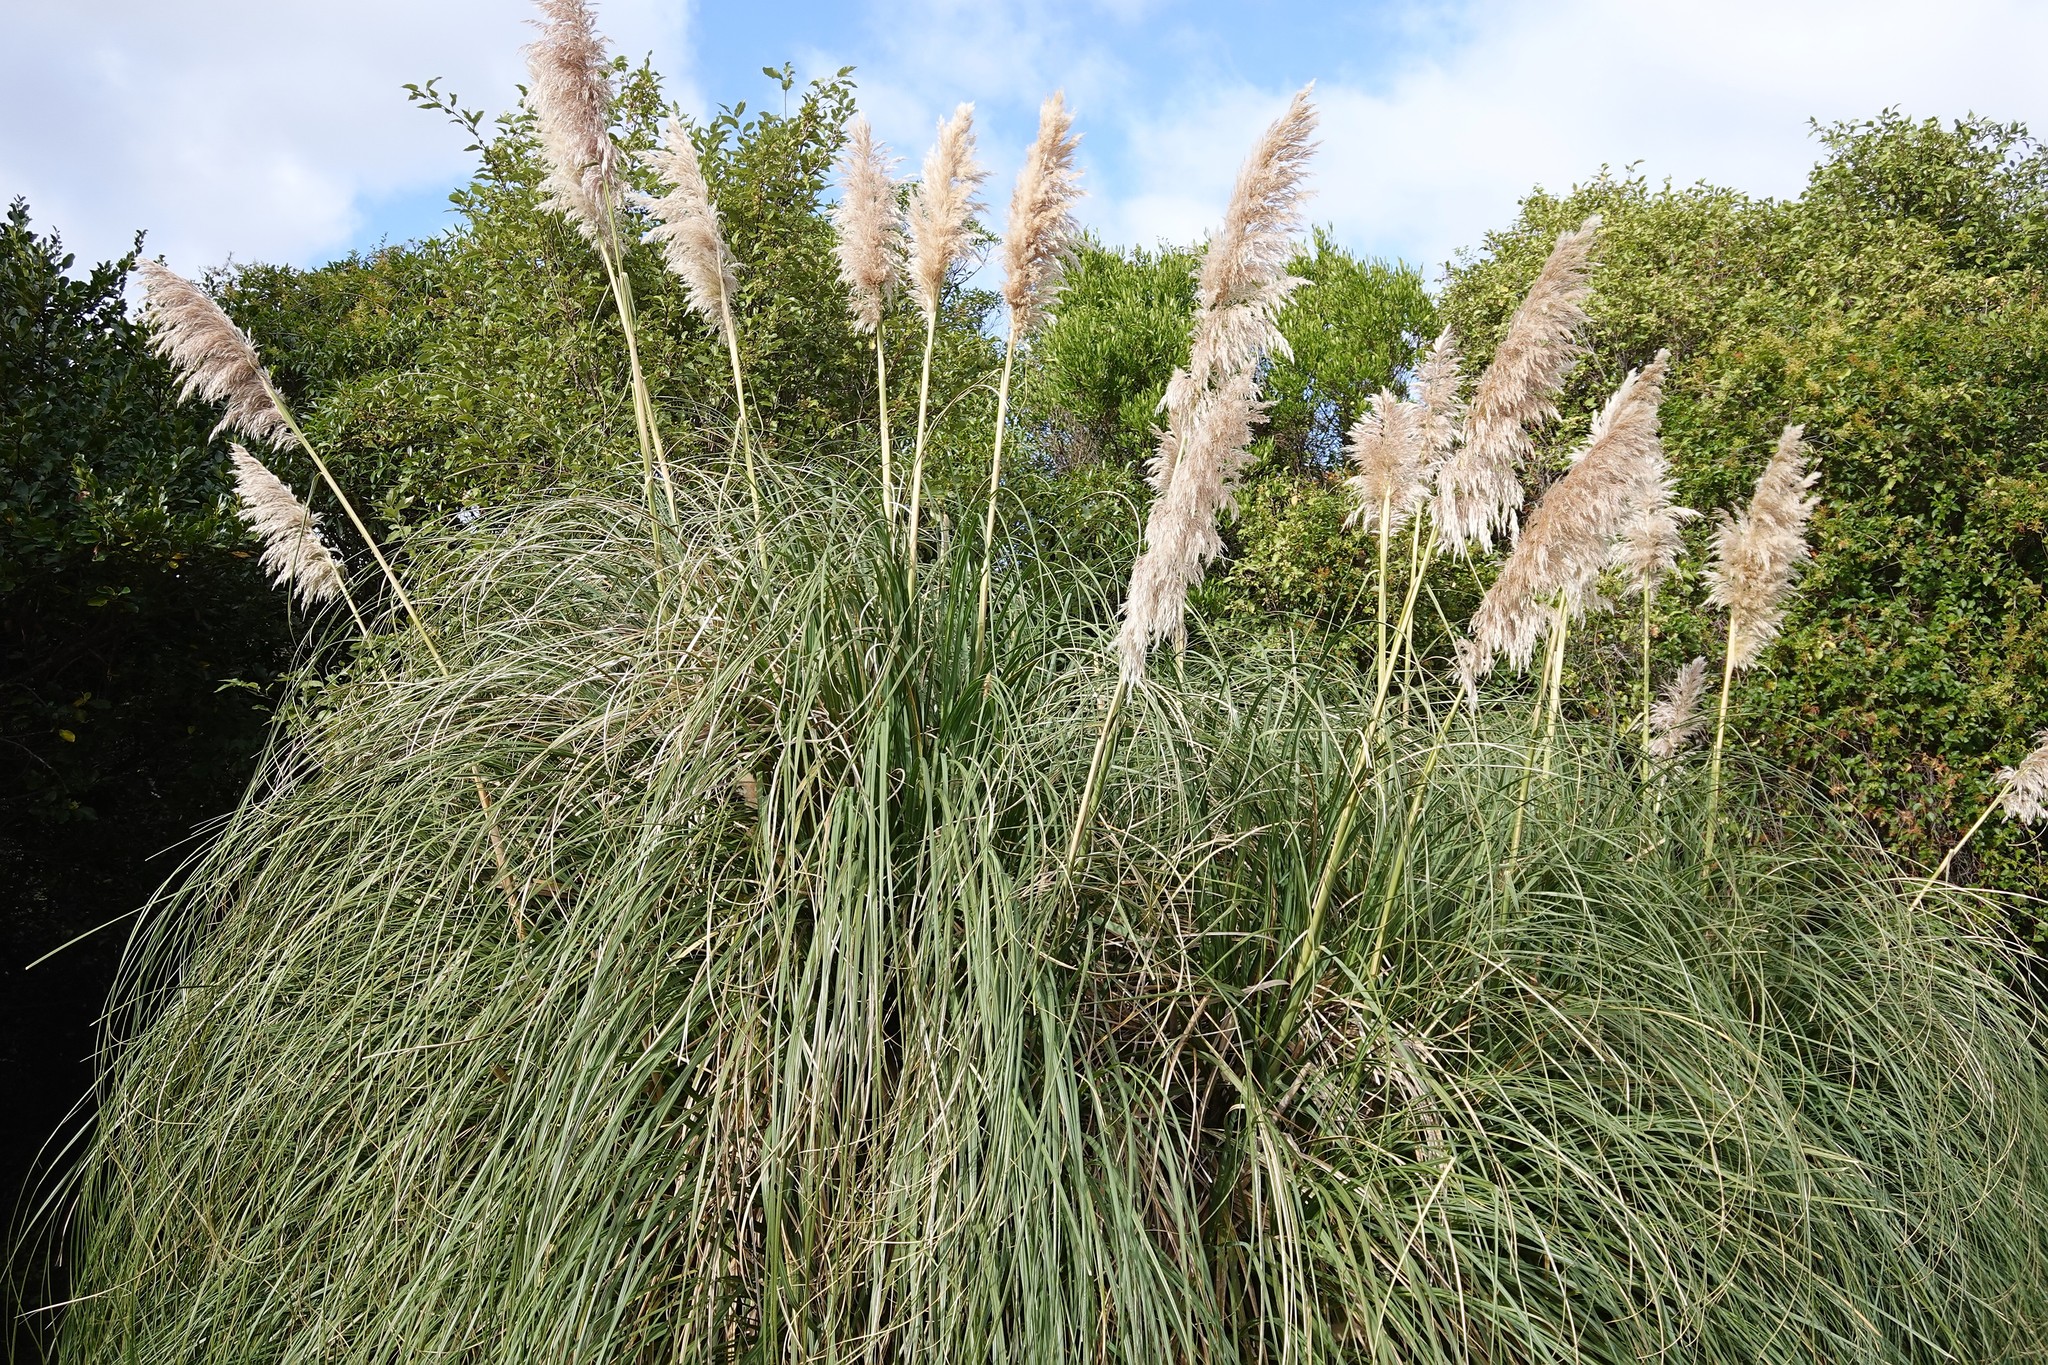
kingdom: Plantae
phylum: Tracheophyta
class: Liliopsida
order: Poales
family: Poaceae
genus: Cortaderia
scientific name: Cortaderia selloana
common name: Uruguayan pampas grass
